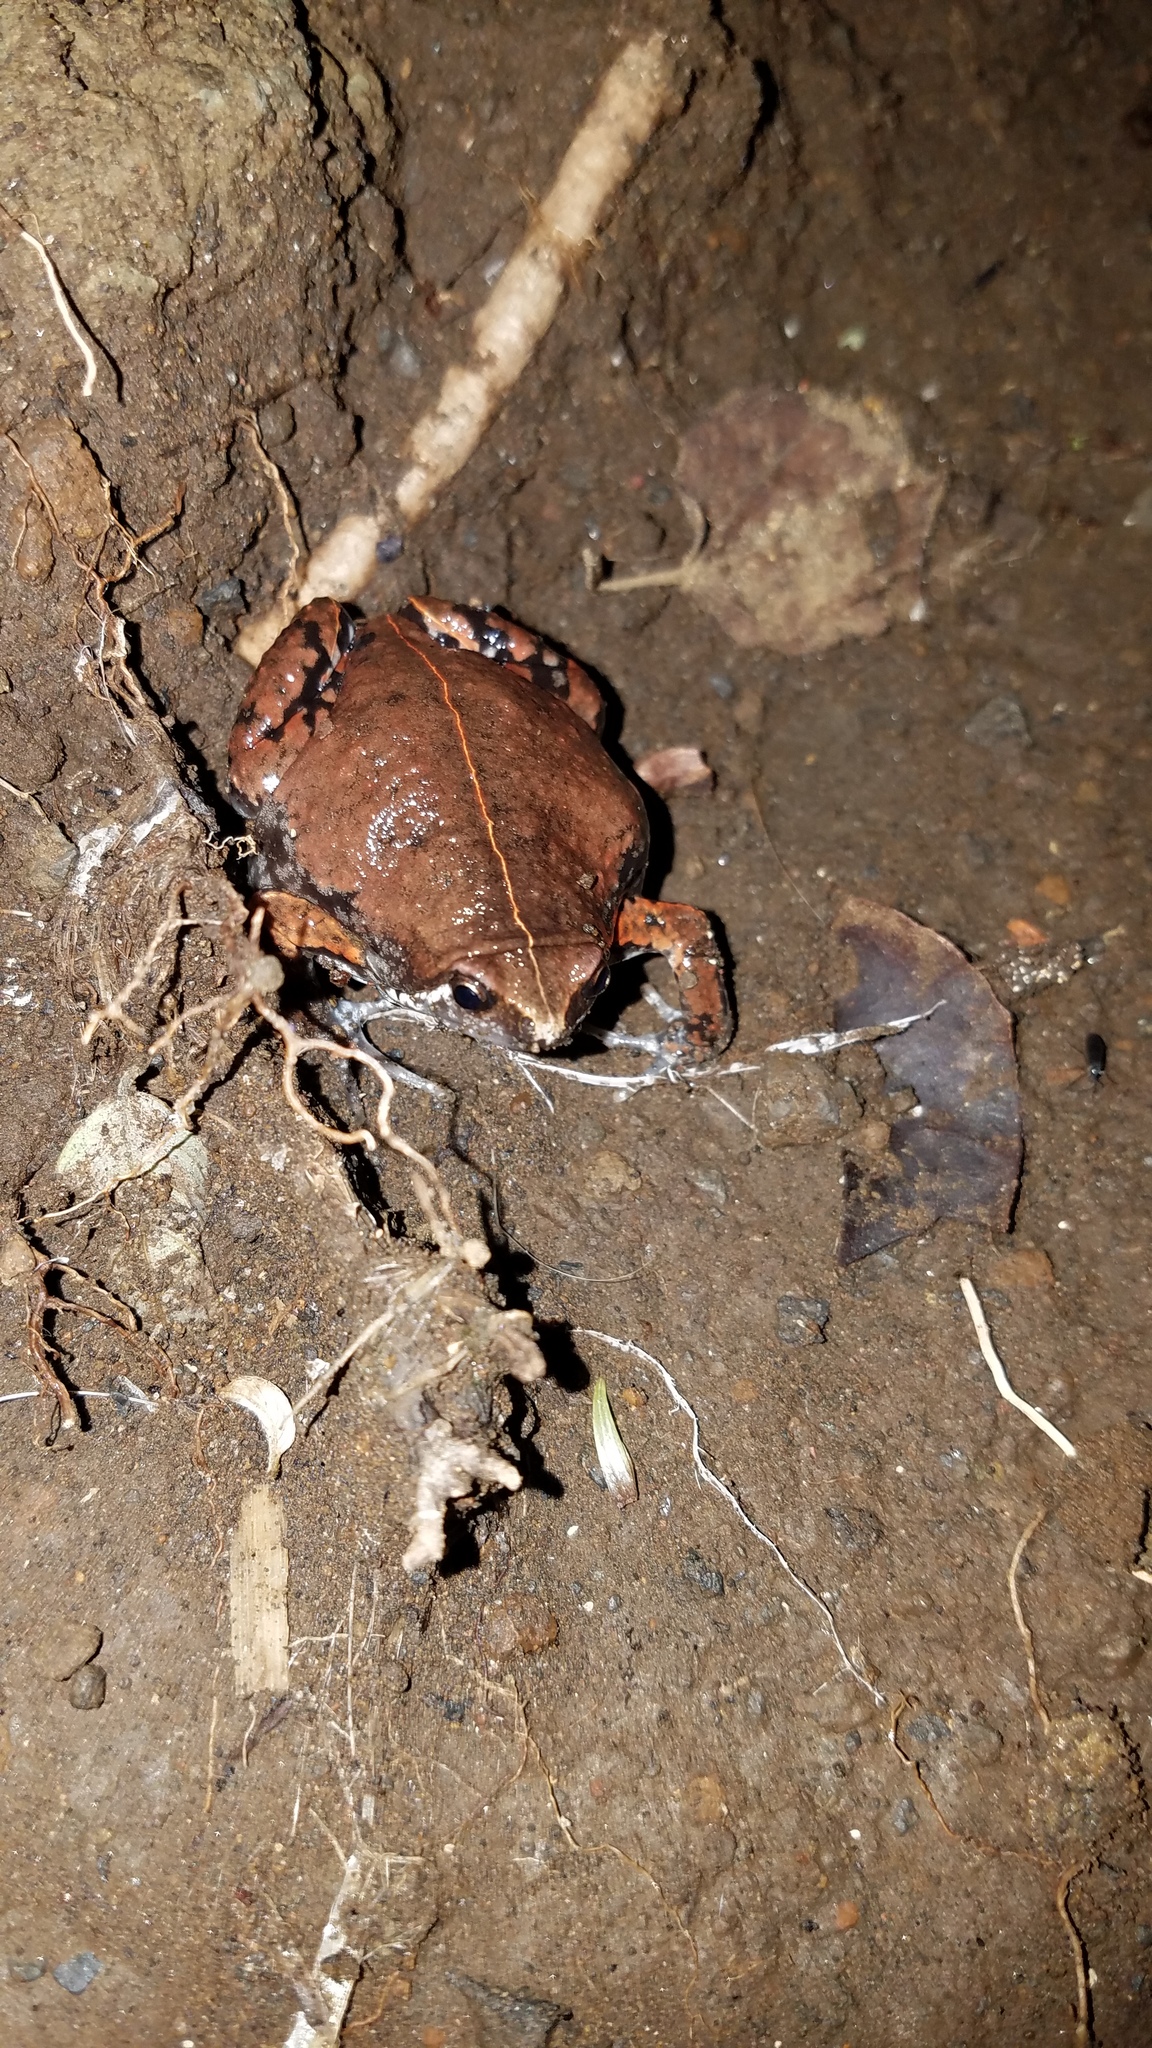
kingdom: Animalia
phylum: Chordata
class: Amphibia
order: Anura
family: Microhylidae
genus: Hypopachus
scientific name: Hypopachus variolosus
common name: Sheep frog
